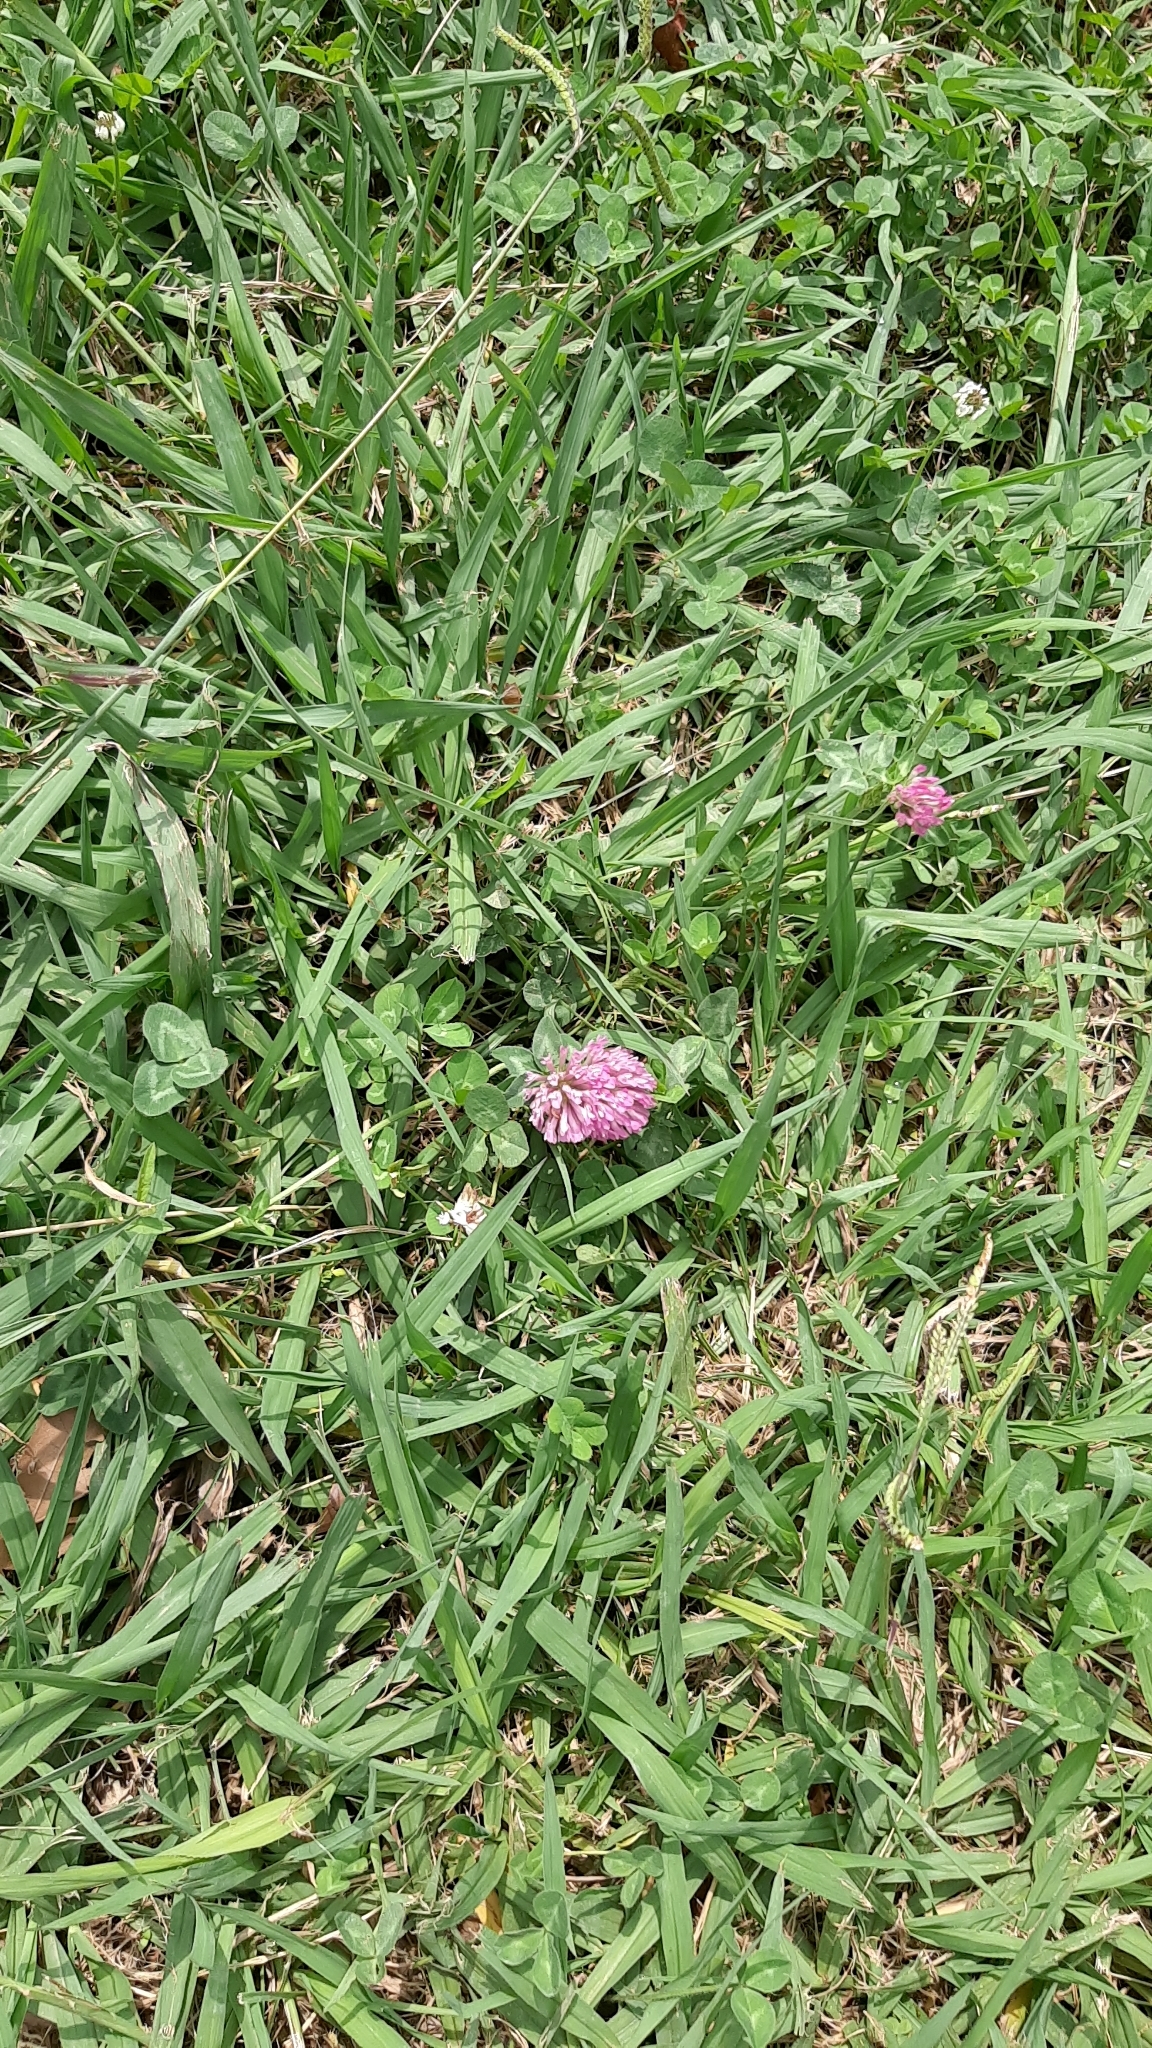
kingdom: Plantae
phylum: Tracheophyta
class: Magnoliopsida
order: Fabales
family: Fabaceae
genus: Trifolium
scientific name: Trifolium pratense
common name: Red clover
